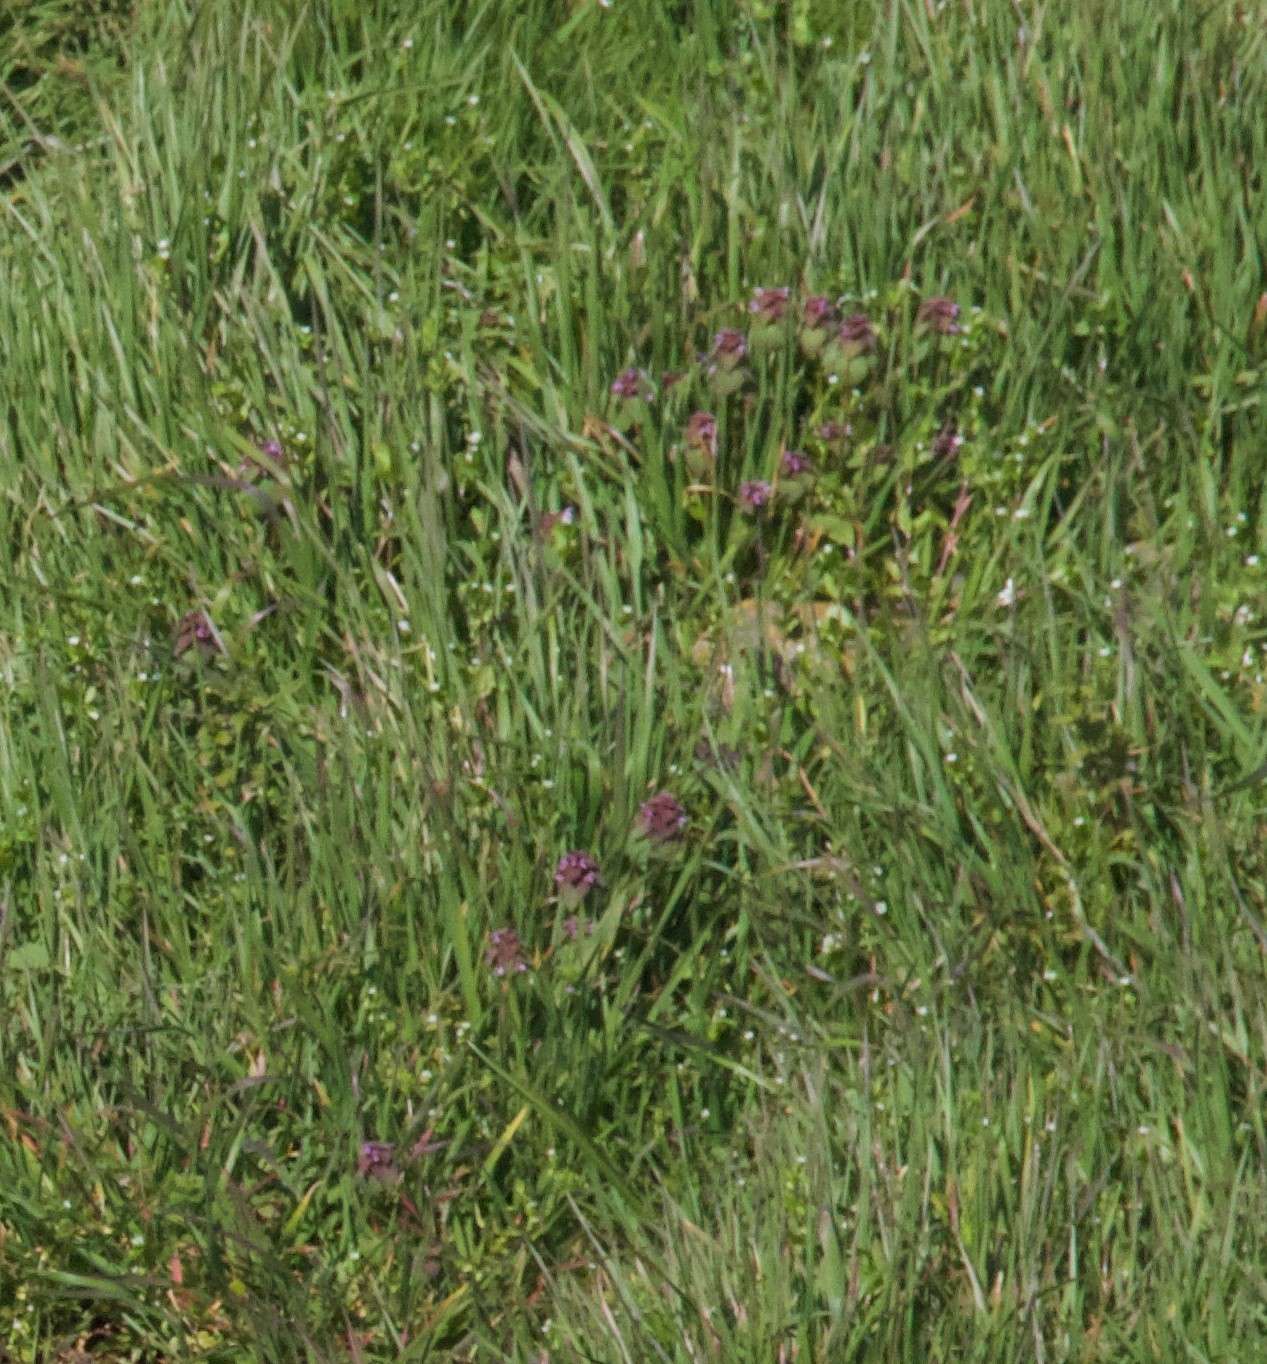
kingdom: Plantae
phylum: Tracheophyta
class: Magnoliopsida
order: Lamiales
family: Lamiaceae
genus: Lamium
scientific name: Lamium purpureum
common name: Red dead-nettle
